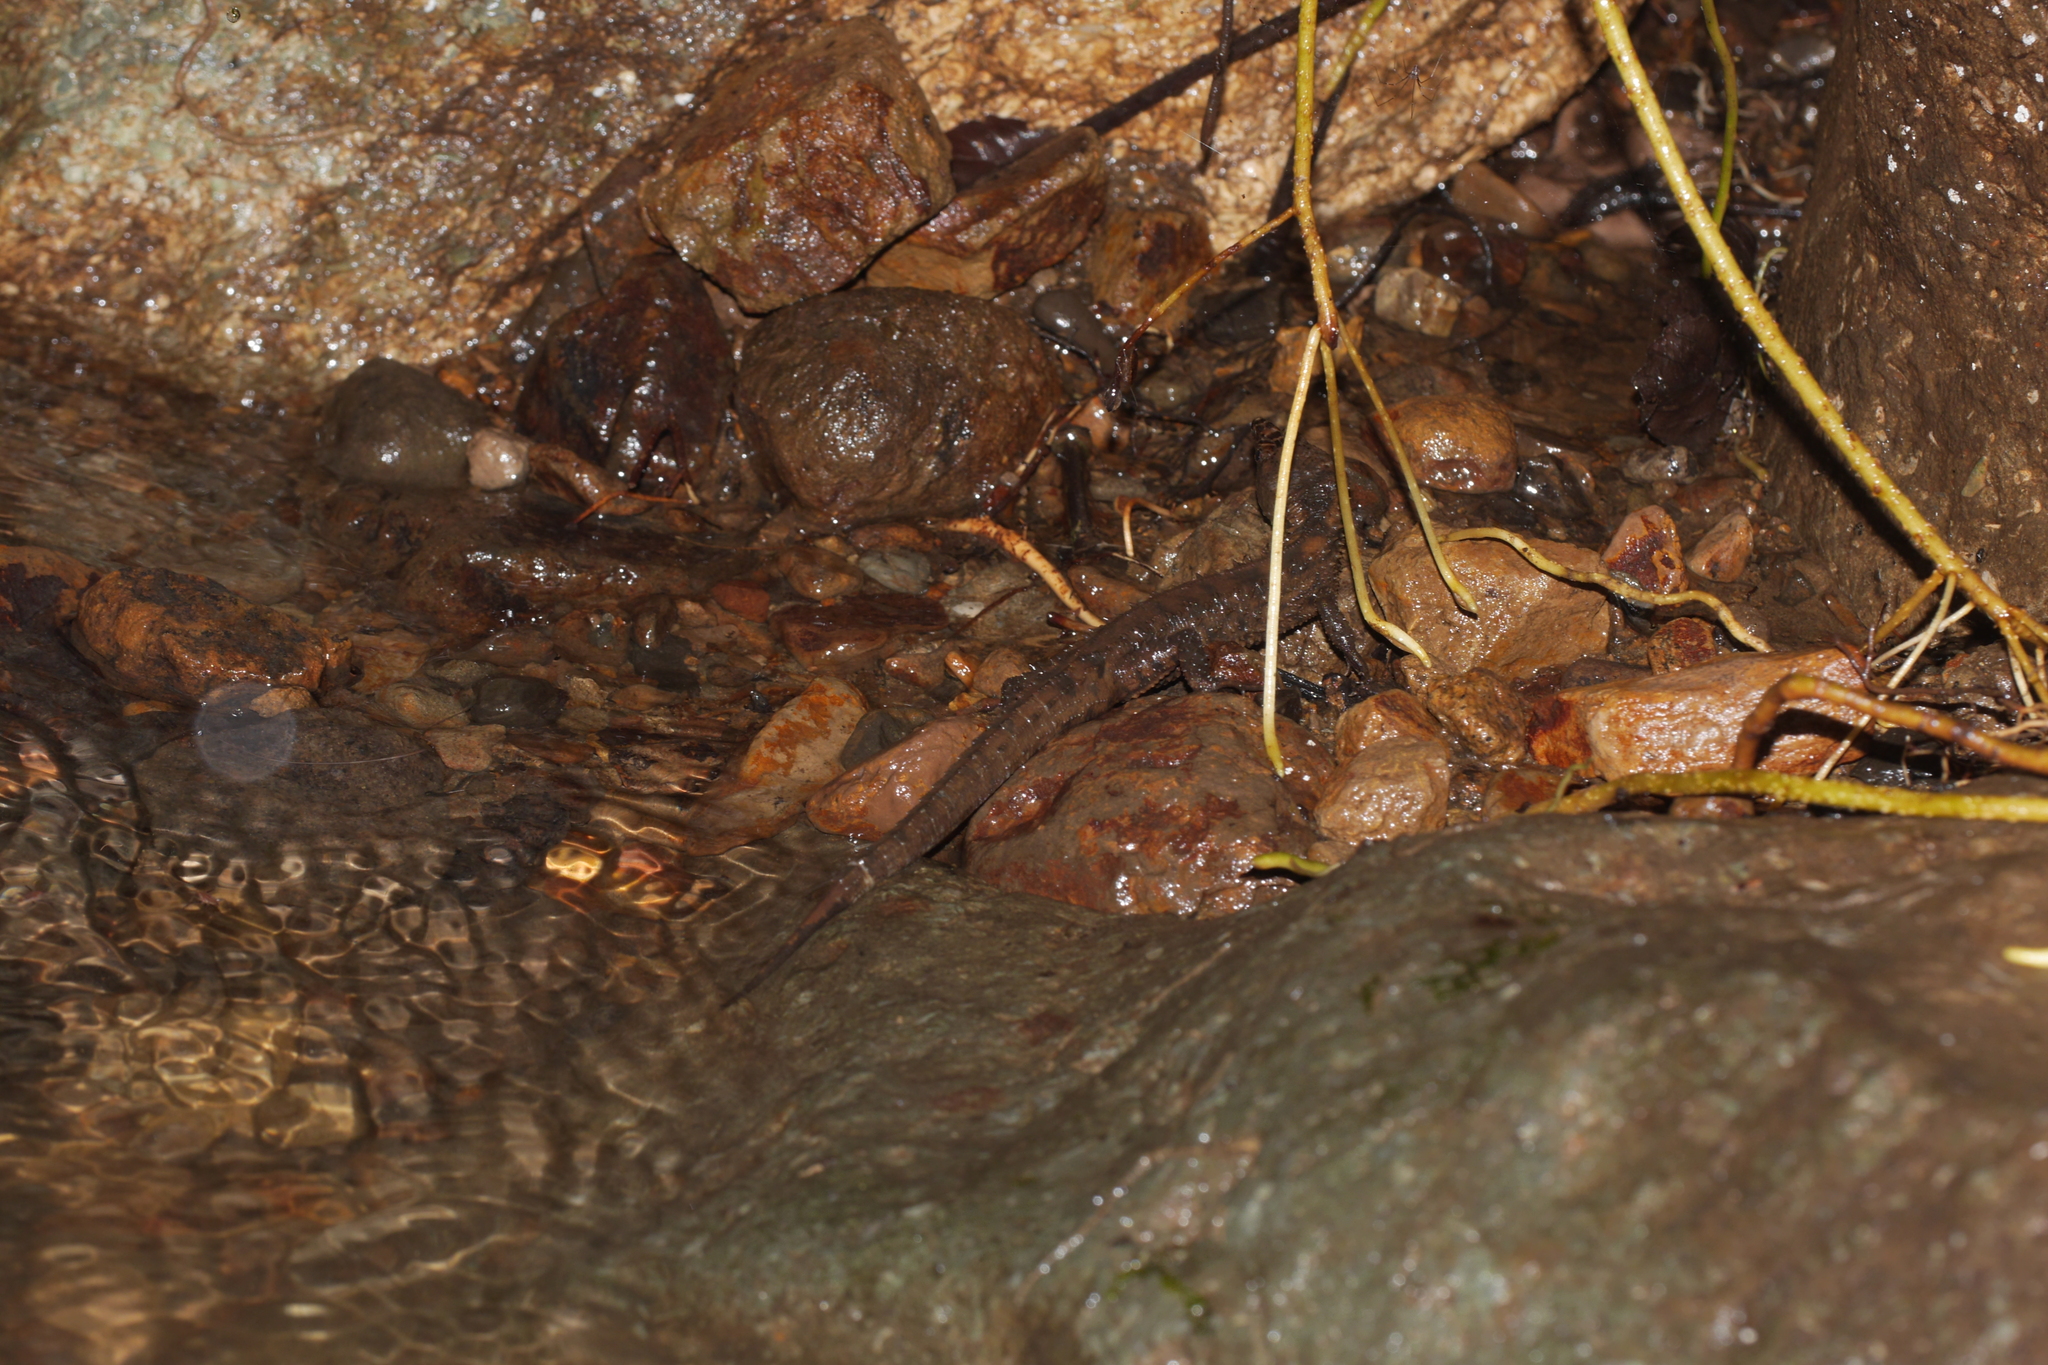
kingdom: Animalia
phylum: Chordata
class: Squamata
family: Gymnophthalmidae
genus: Echinosaura
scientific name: Echinosaura horrida
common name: Rough teiid
